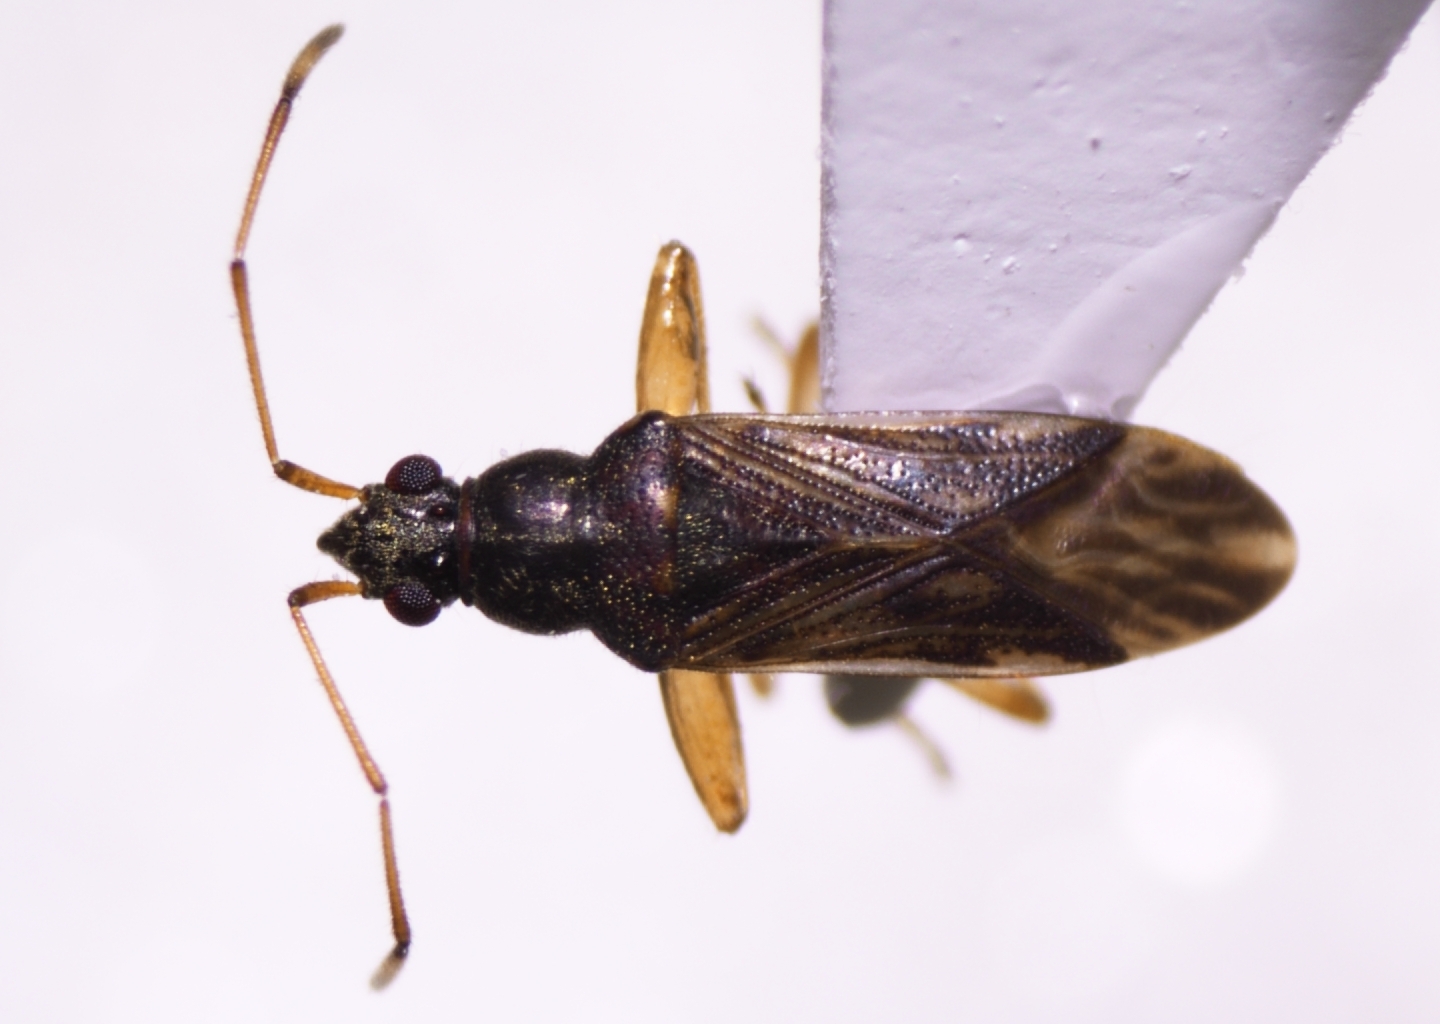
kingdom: Animalia
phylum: Arthropoda
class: Insecta
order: Hemiptera
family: Rhyparochromidae
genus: Pamerarma
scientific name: Pamerarma ventralis
